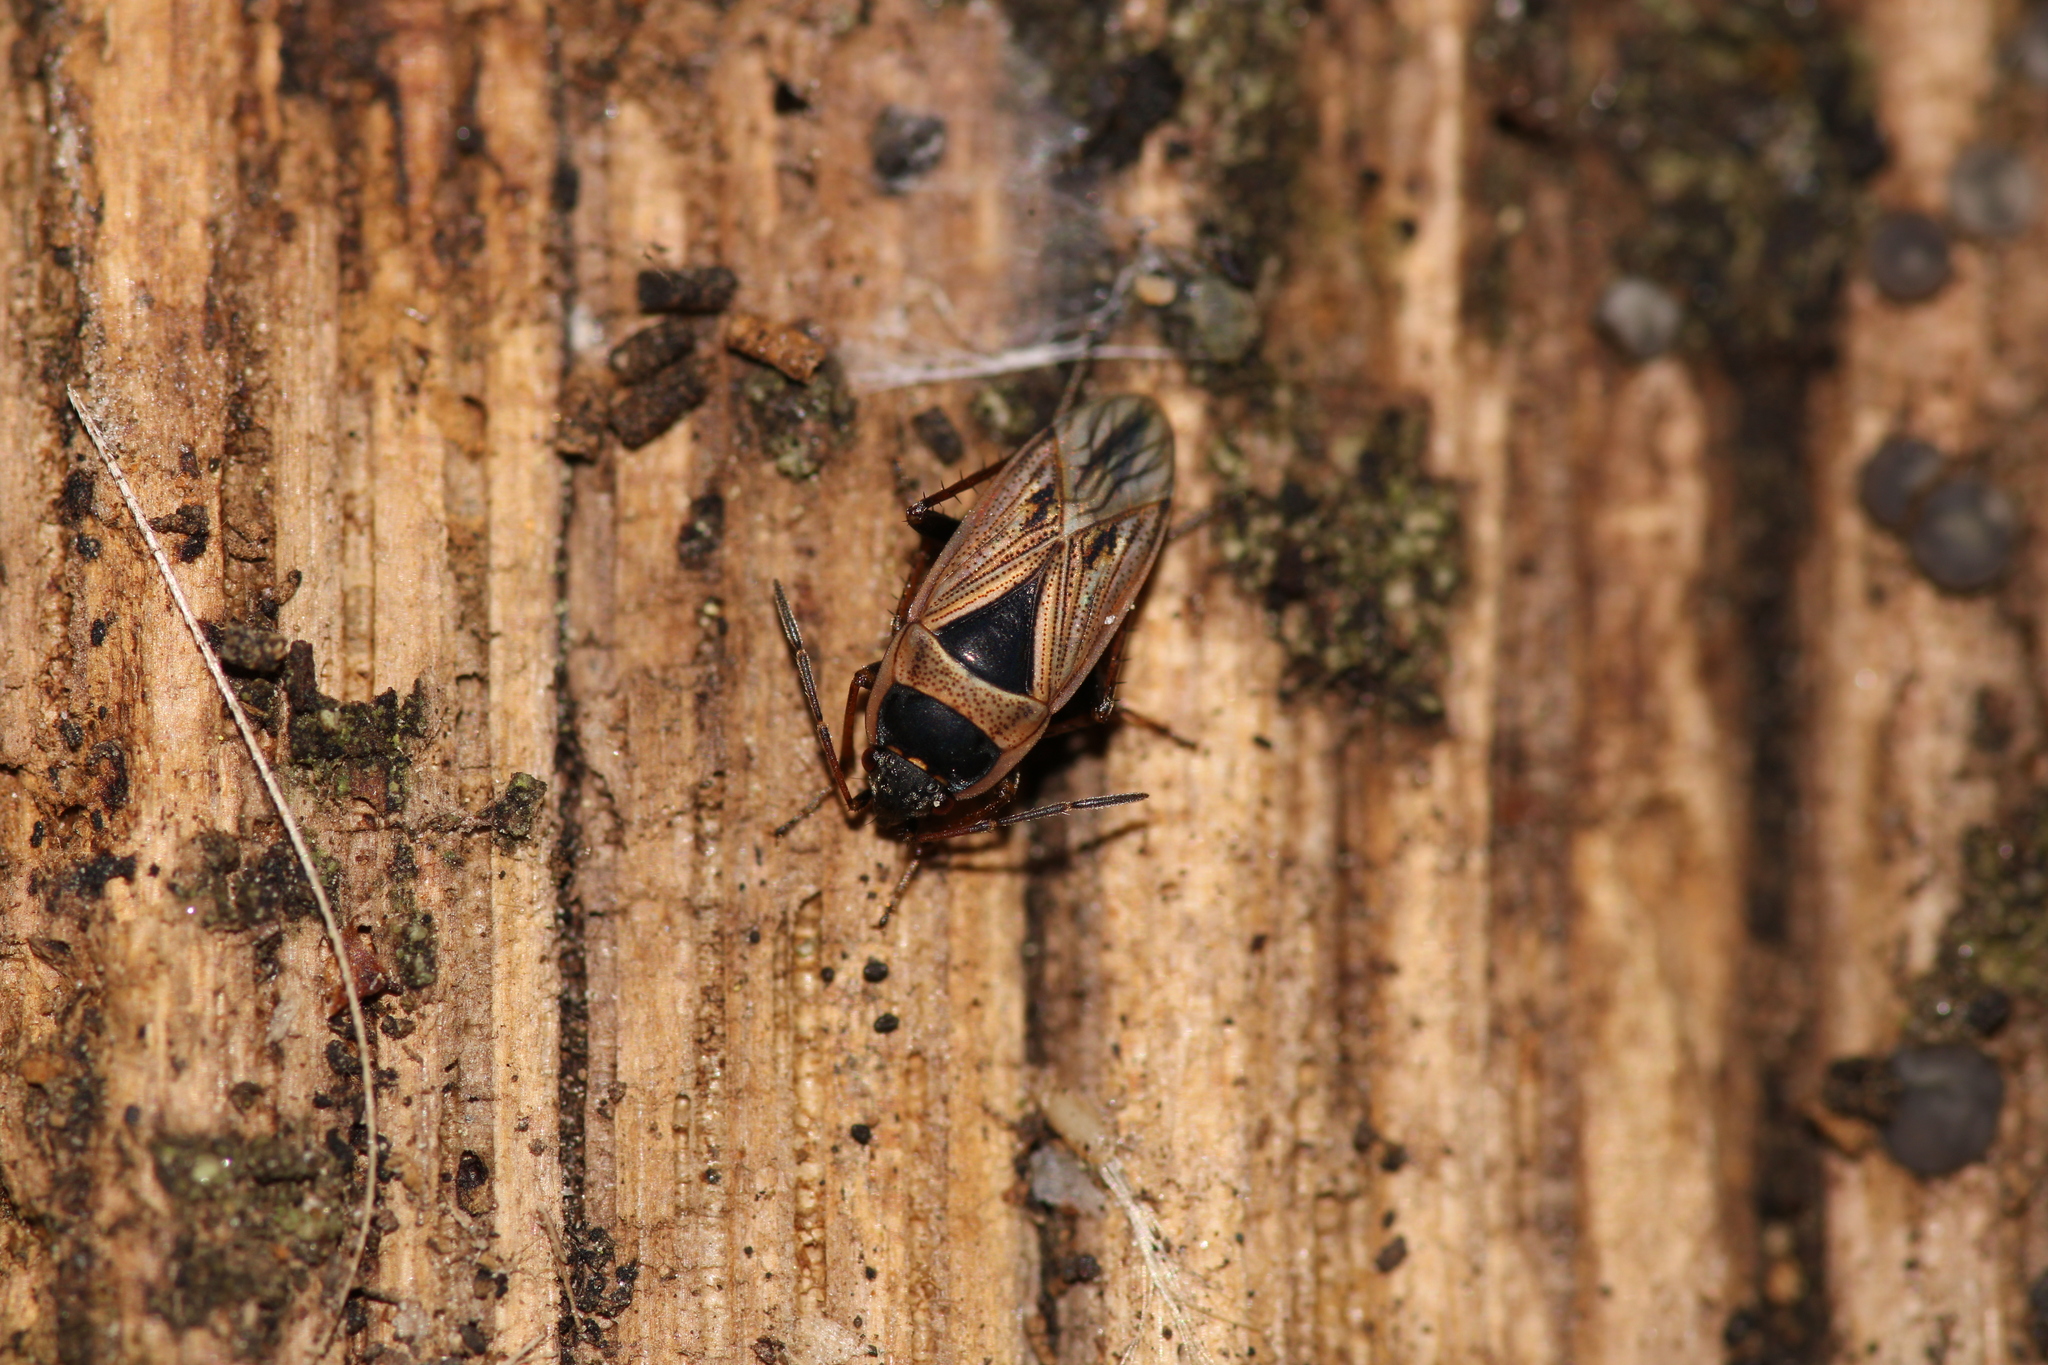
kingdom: Animalia
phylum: Arthropoda
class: Insecta
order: Hemiptera
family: Rhyparochromidae
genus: Xanthochilus
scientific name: Xanthochilus quadratus
